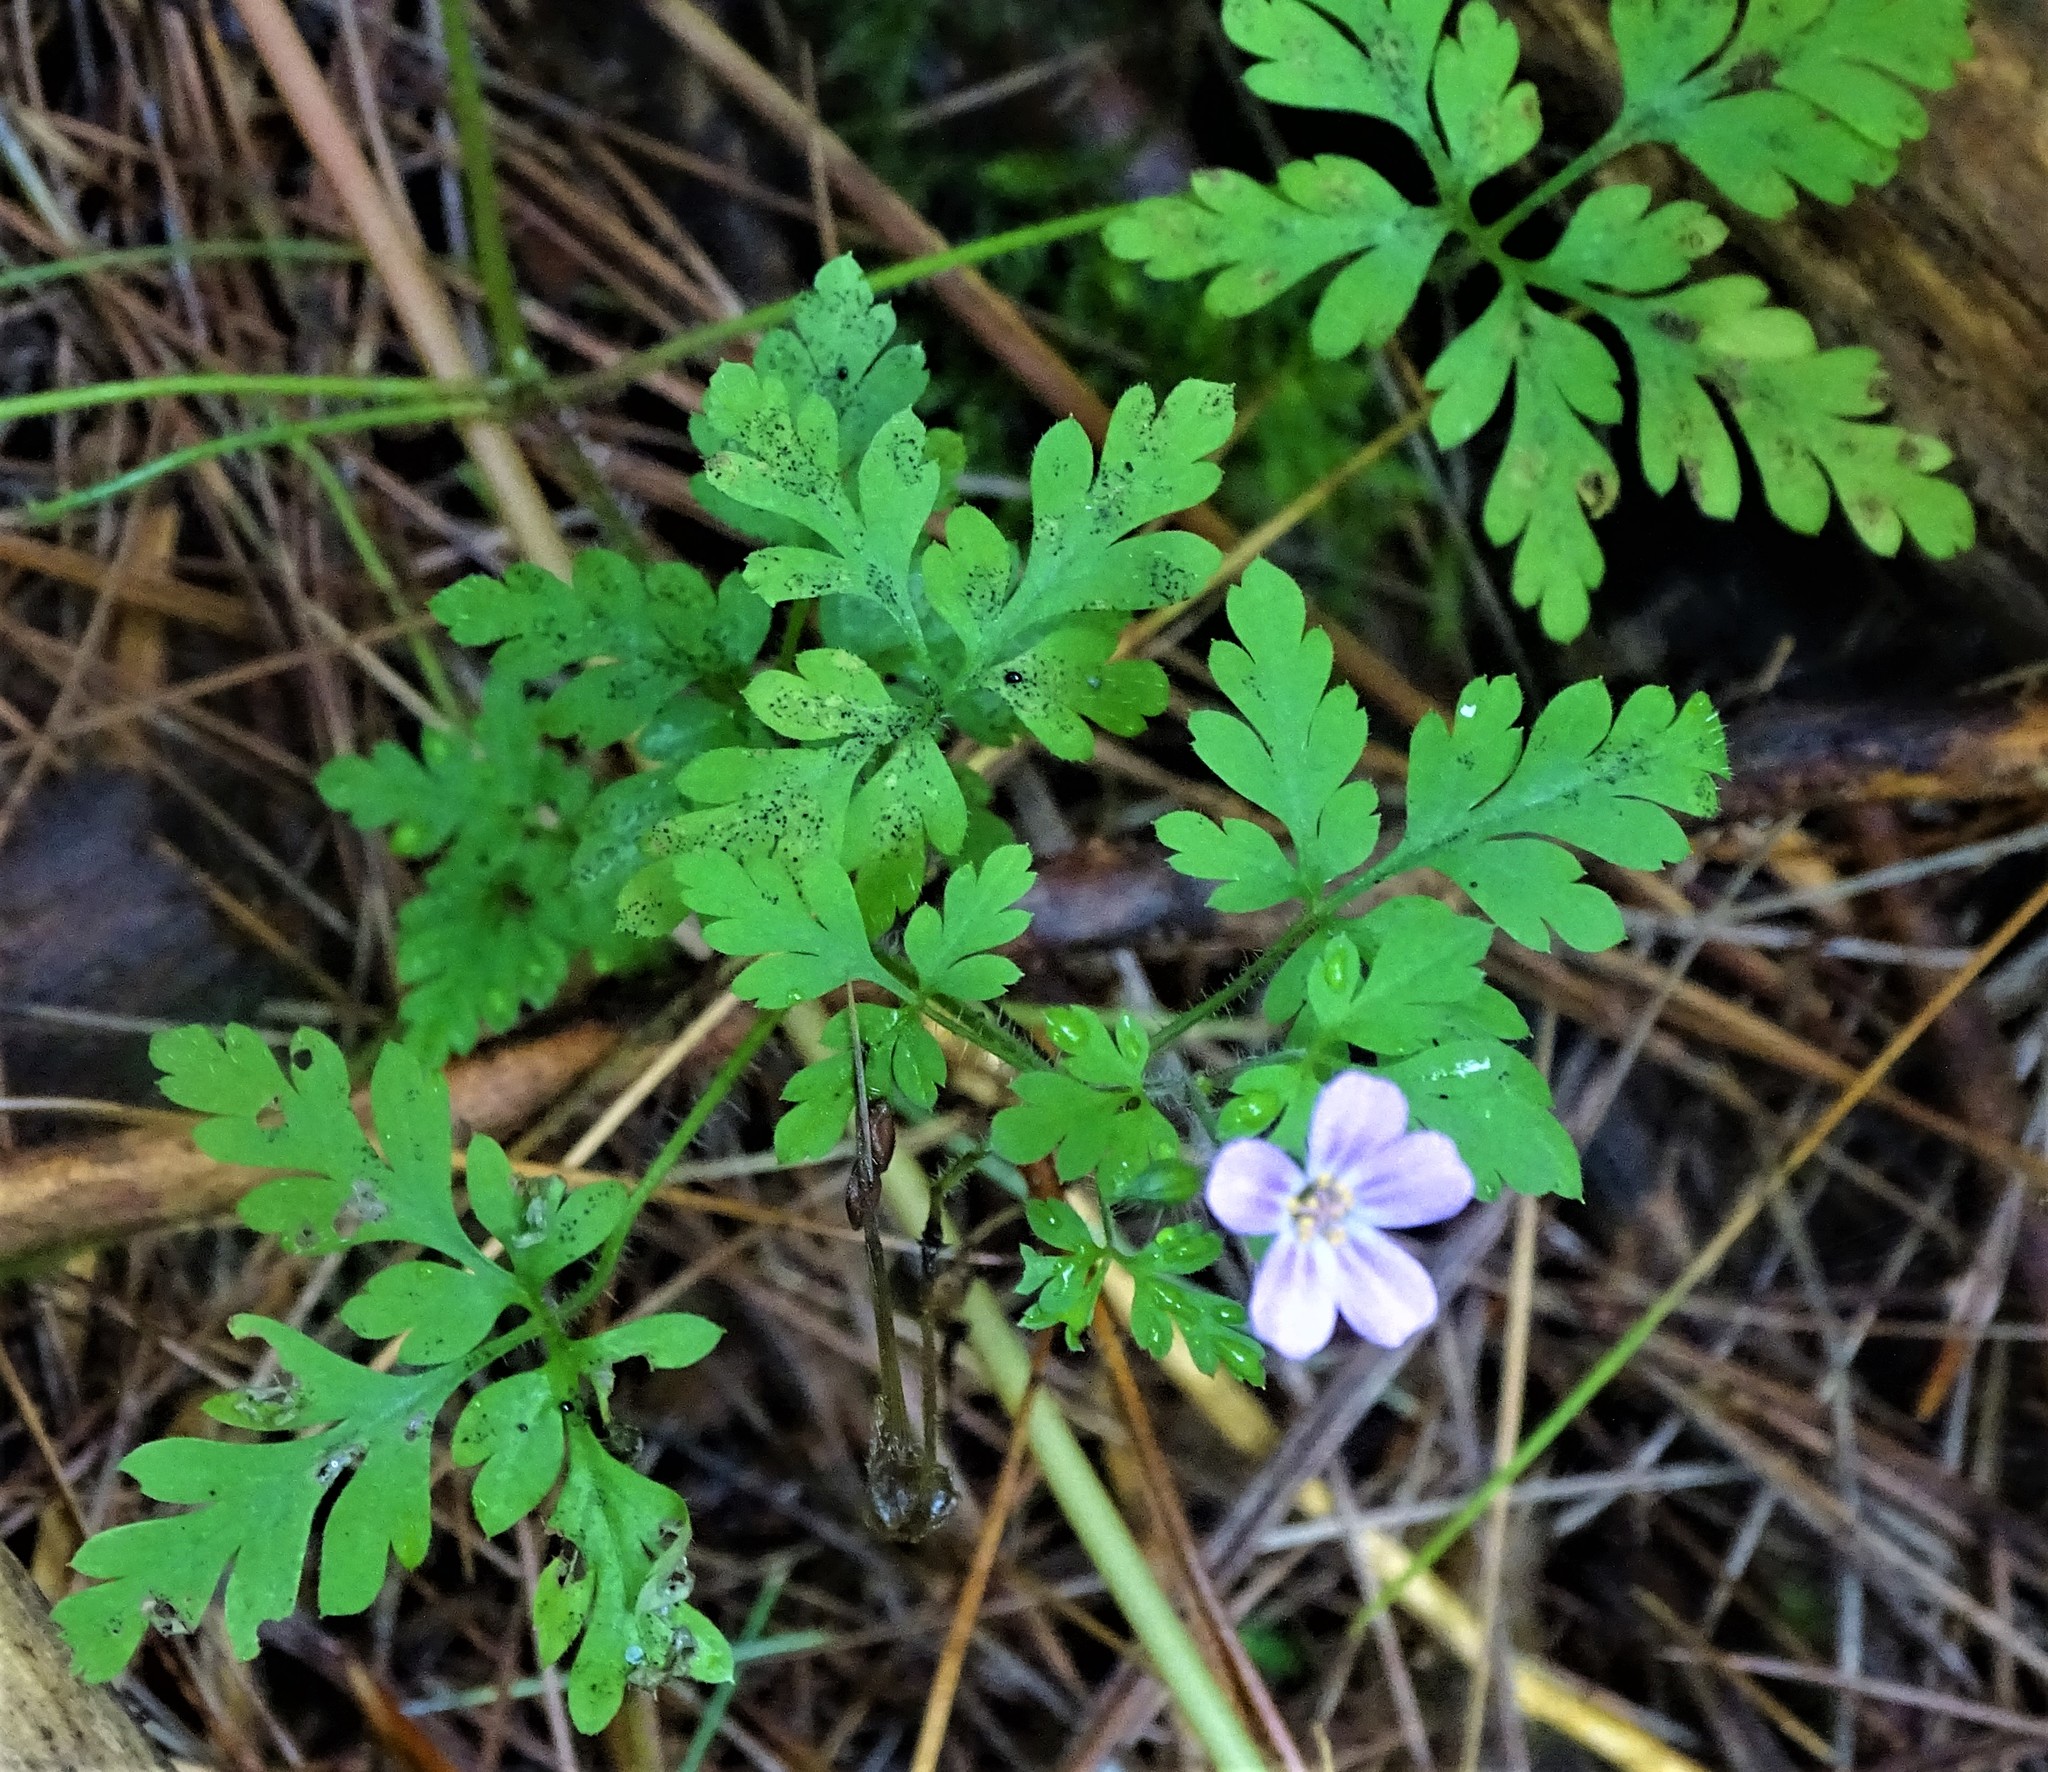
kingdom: Plantae
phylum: Tracheophyta
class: Magnoliopsida
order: Geraniales
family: Geraniaceae
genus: Geranium
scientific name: Geranium robertianum
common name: Herb-robert
